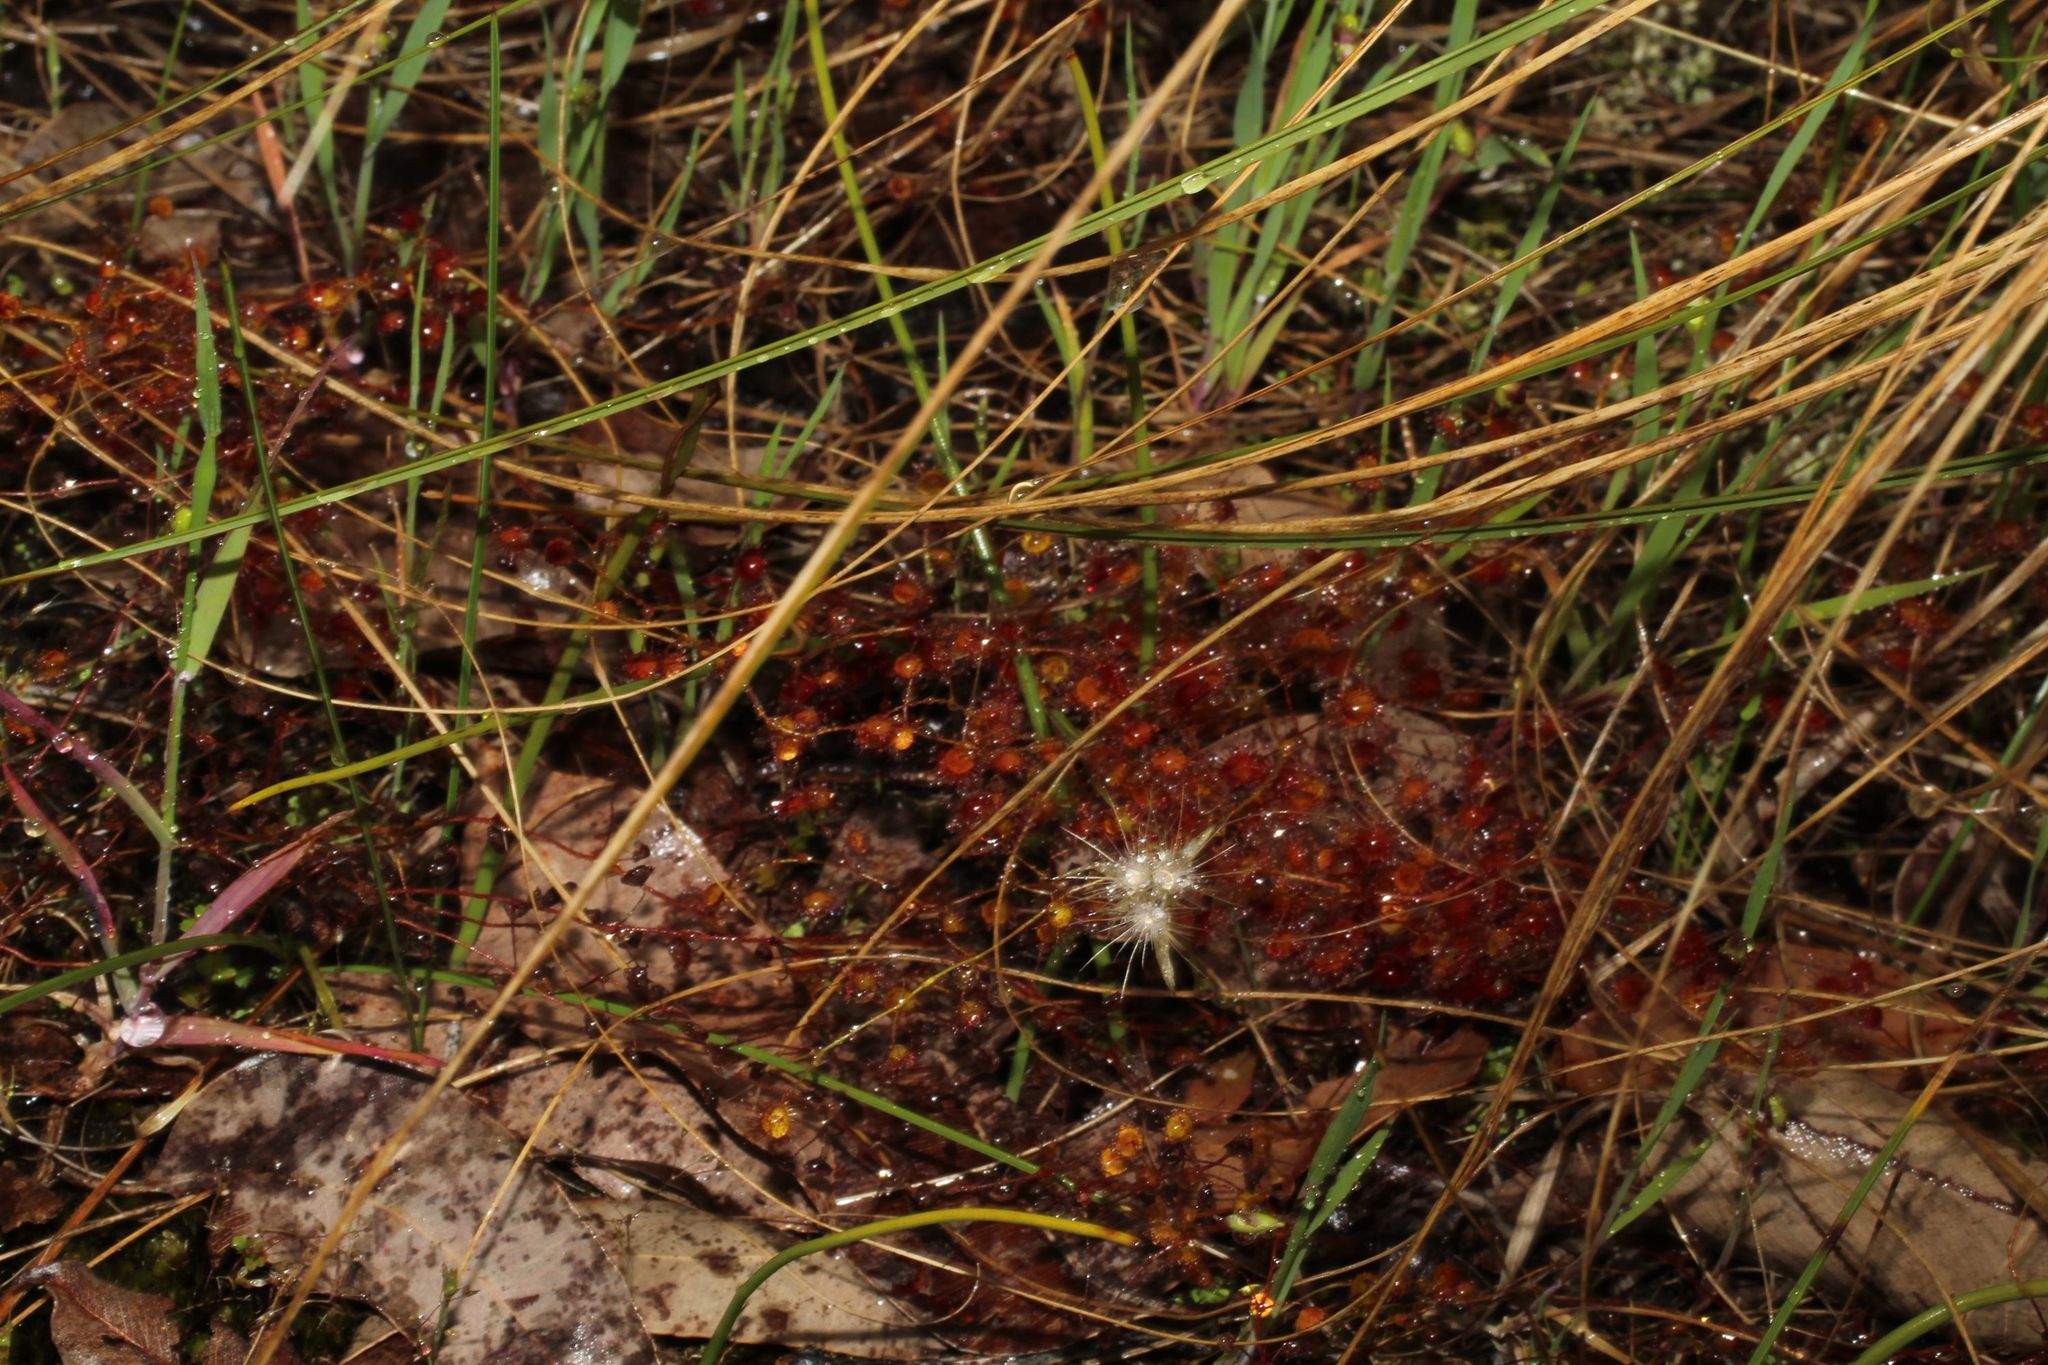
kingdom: Plantae
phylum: Tracheophyta
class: Magnoliopsida
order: Caryophyllales
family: Droseraceae
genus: Drosera
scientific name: Drosera macrantha
